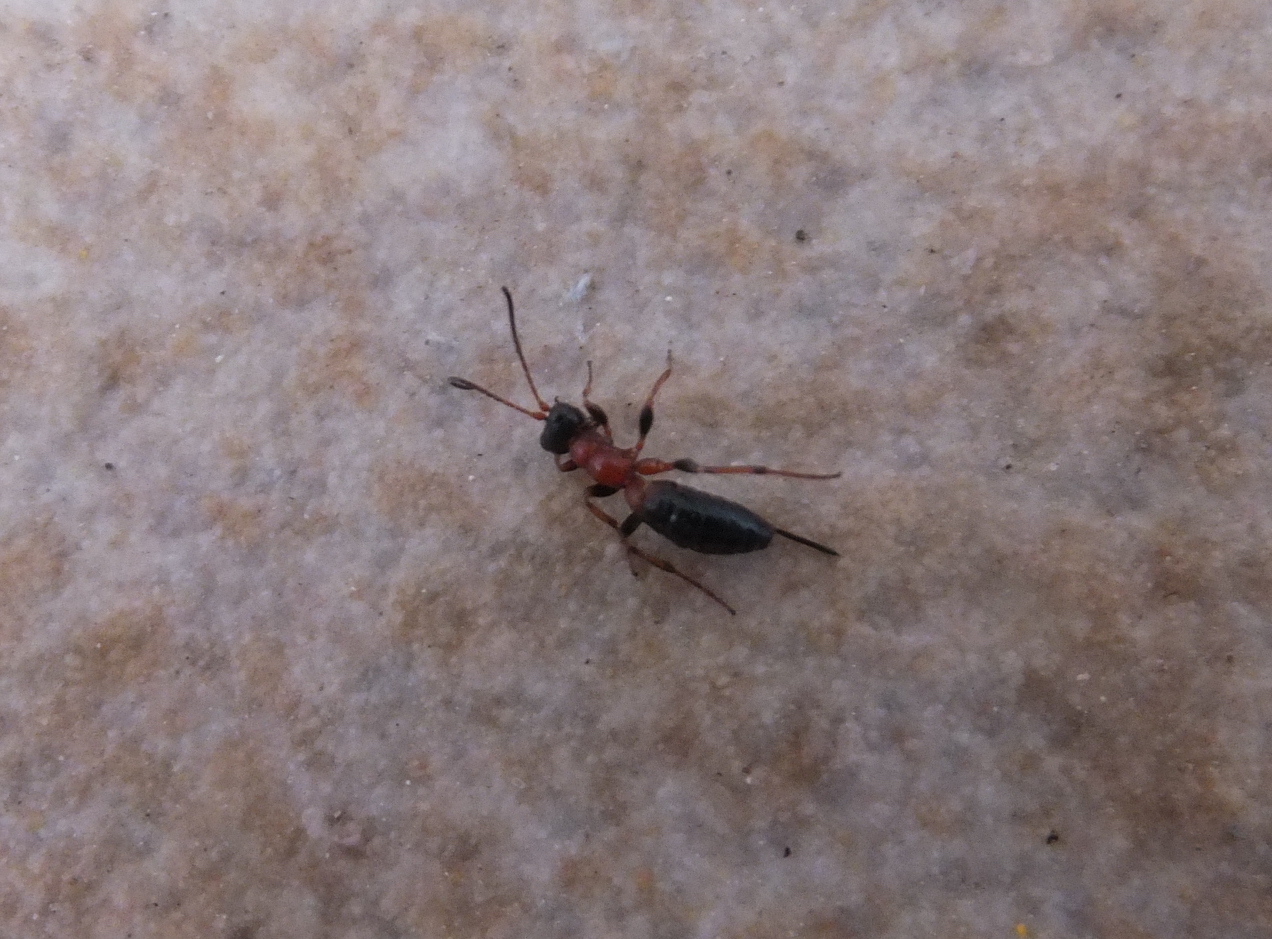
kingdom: Animalia
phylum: Arthropoda
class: Insecta
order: Hymenoptera
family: Ichneumonidae
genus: Thaumatogelis
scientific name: Thaumatogelis gallicus
